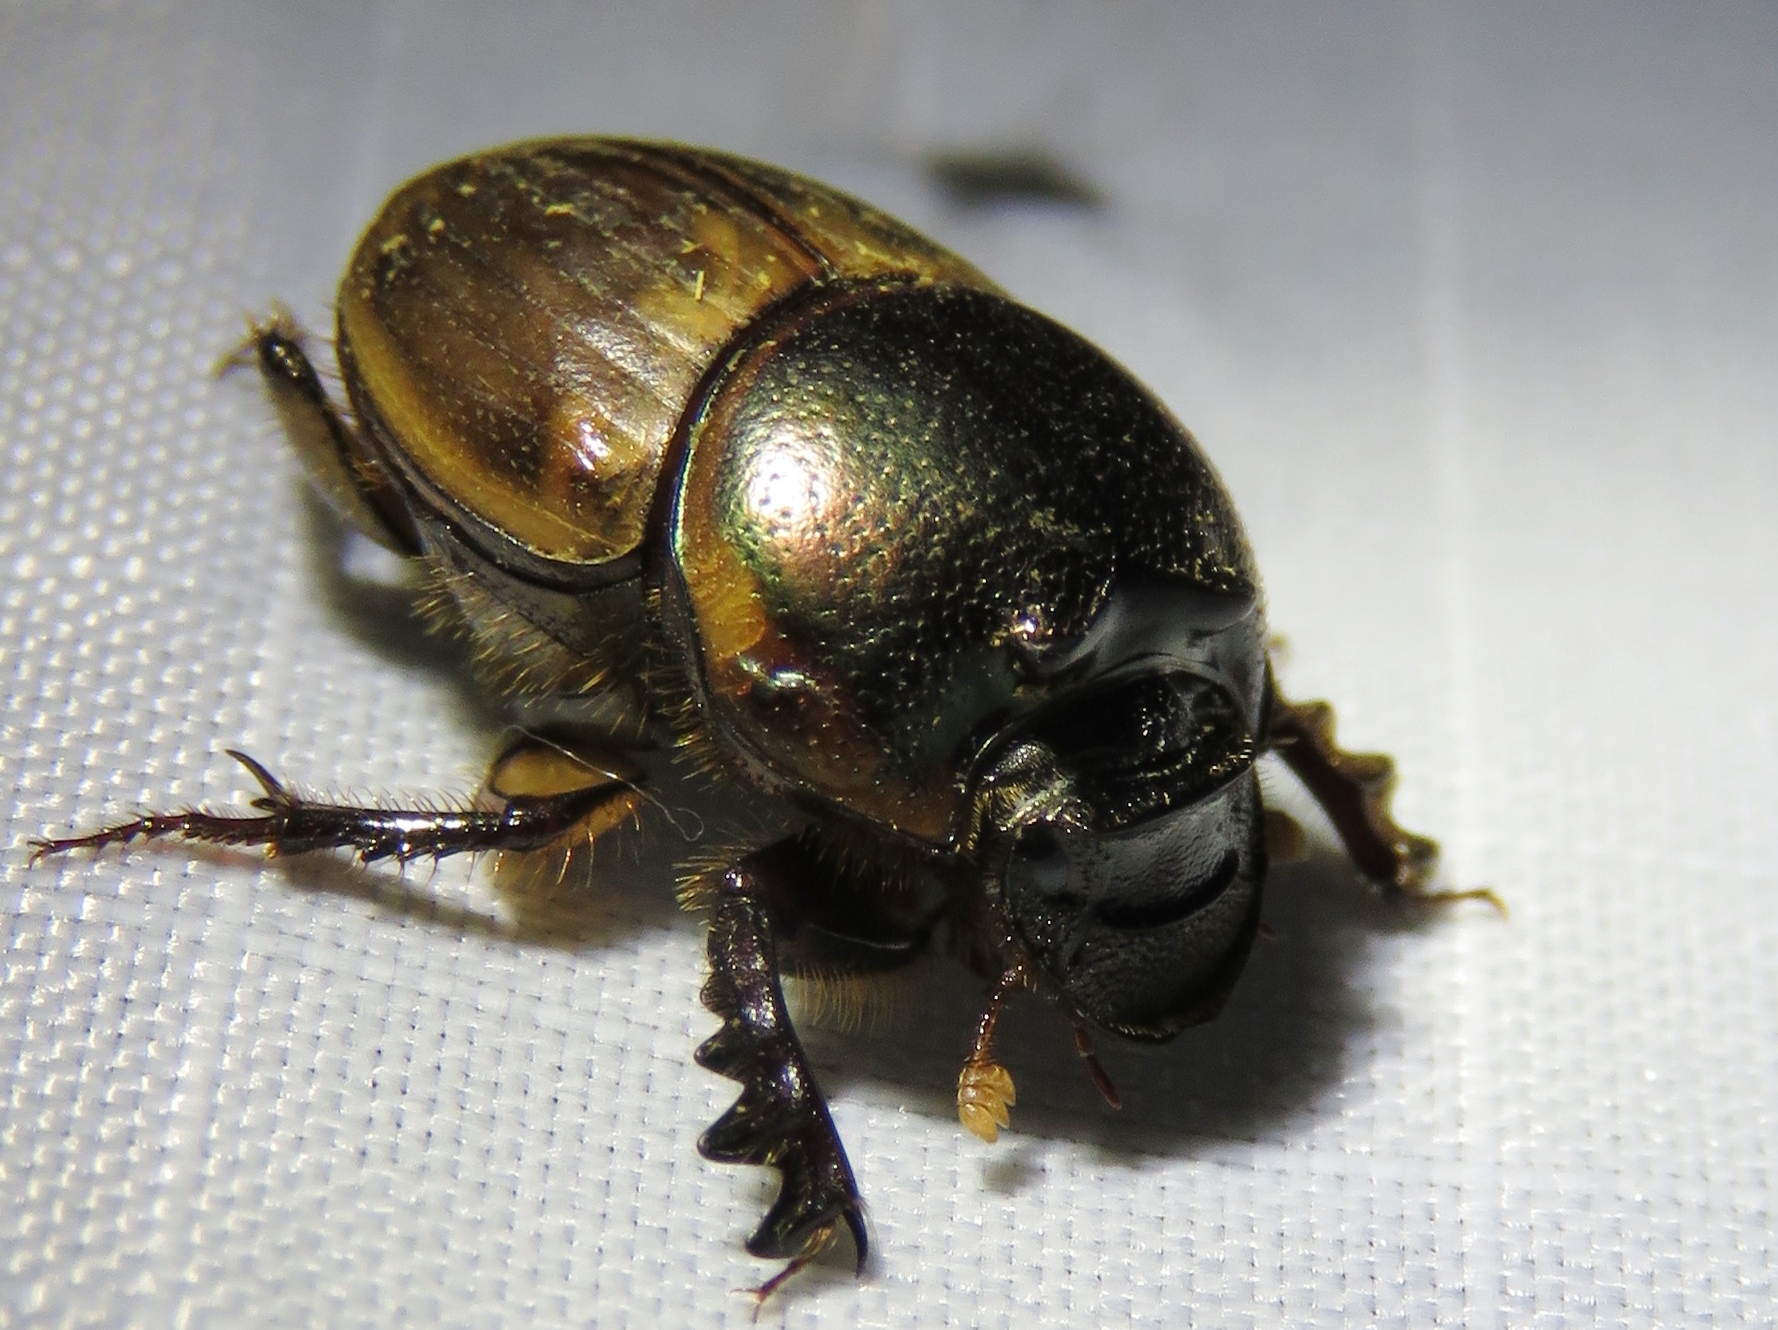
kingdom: Animalia
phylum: Arthropoda
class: Insecta
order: Coleoptera
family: Scarabaeidae
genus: Digitonthophagus
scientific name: Digitonthophagus gazella
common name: Brown dung beetle
